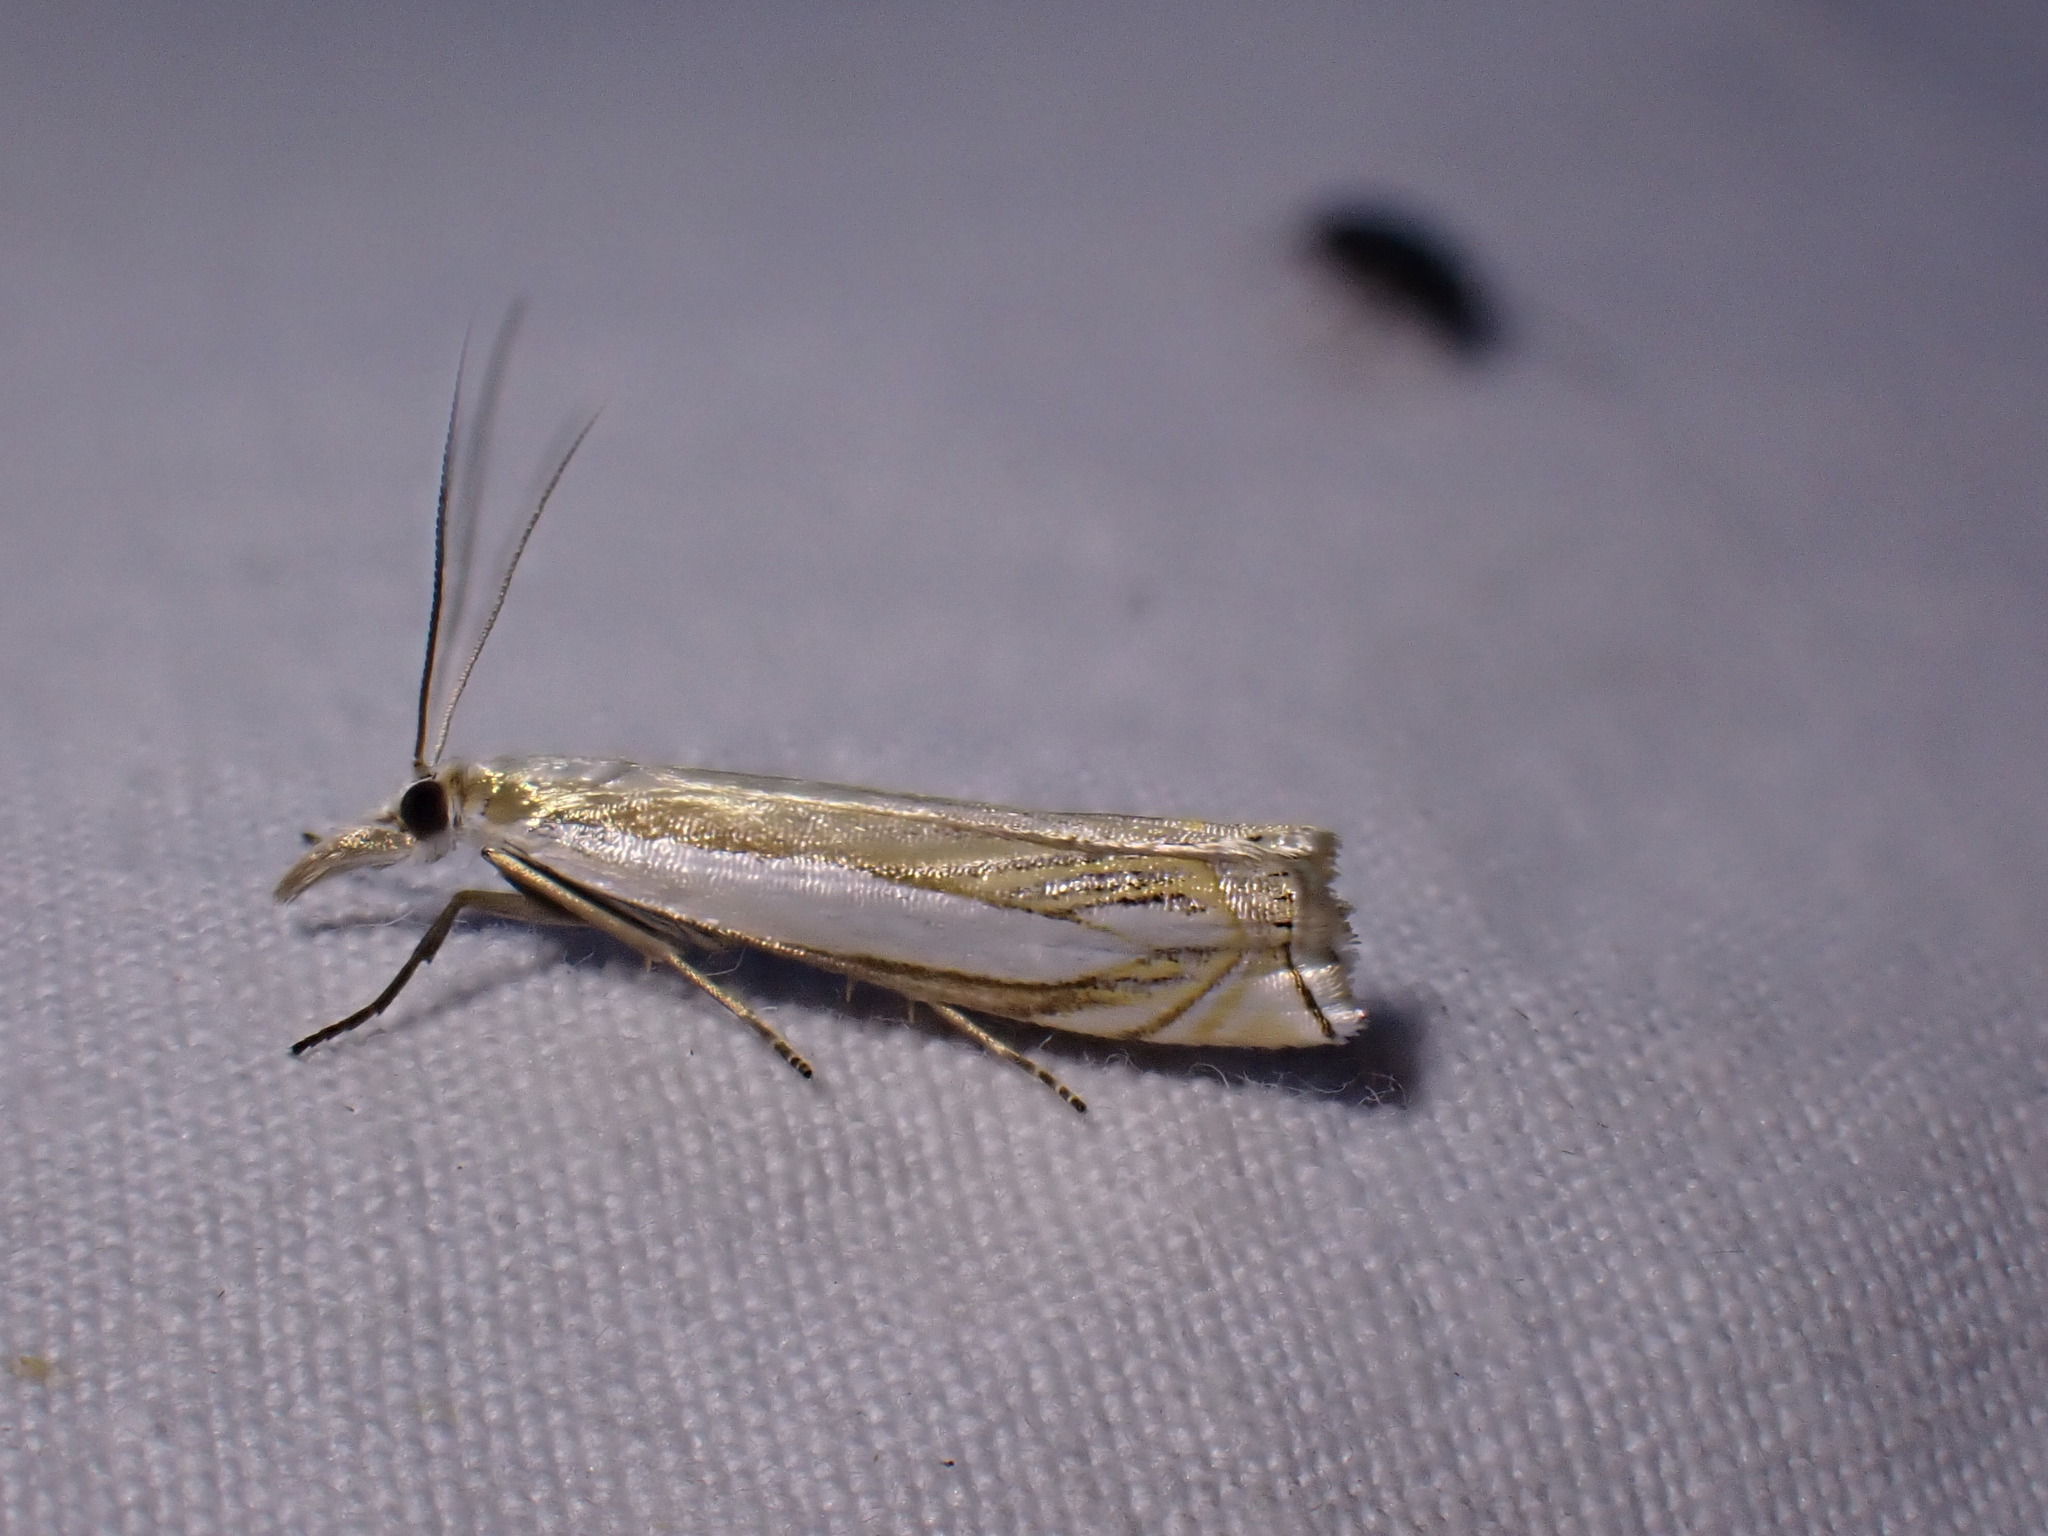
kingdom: Animalia
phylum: Arthropoda
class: Insecta
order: Lepidoptera
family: Crambidae
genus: Crambus
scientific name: Crambus pascuella
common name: Inlaid grass-veneer
